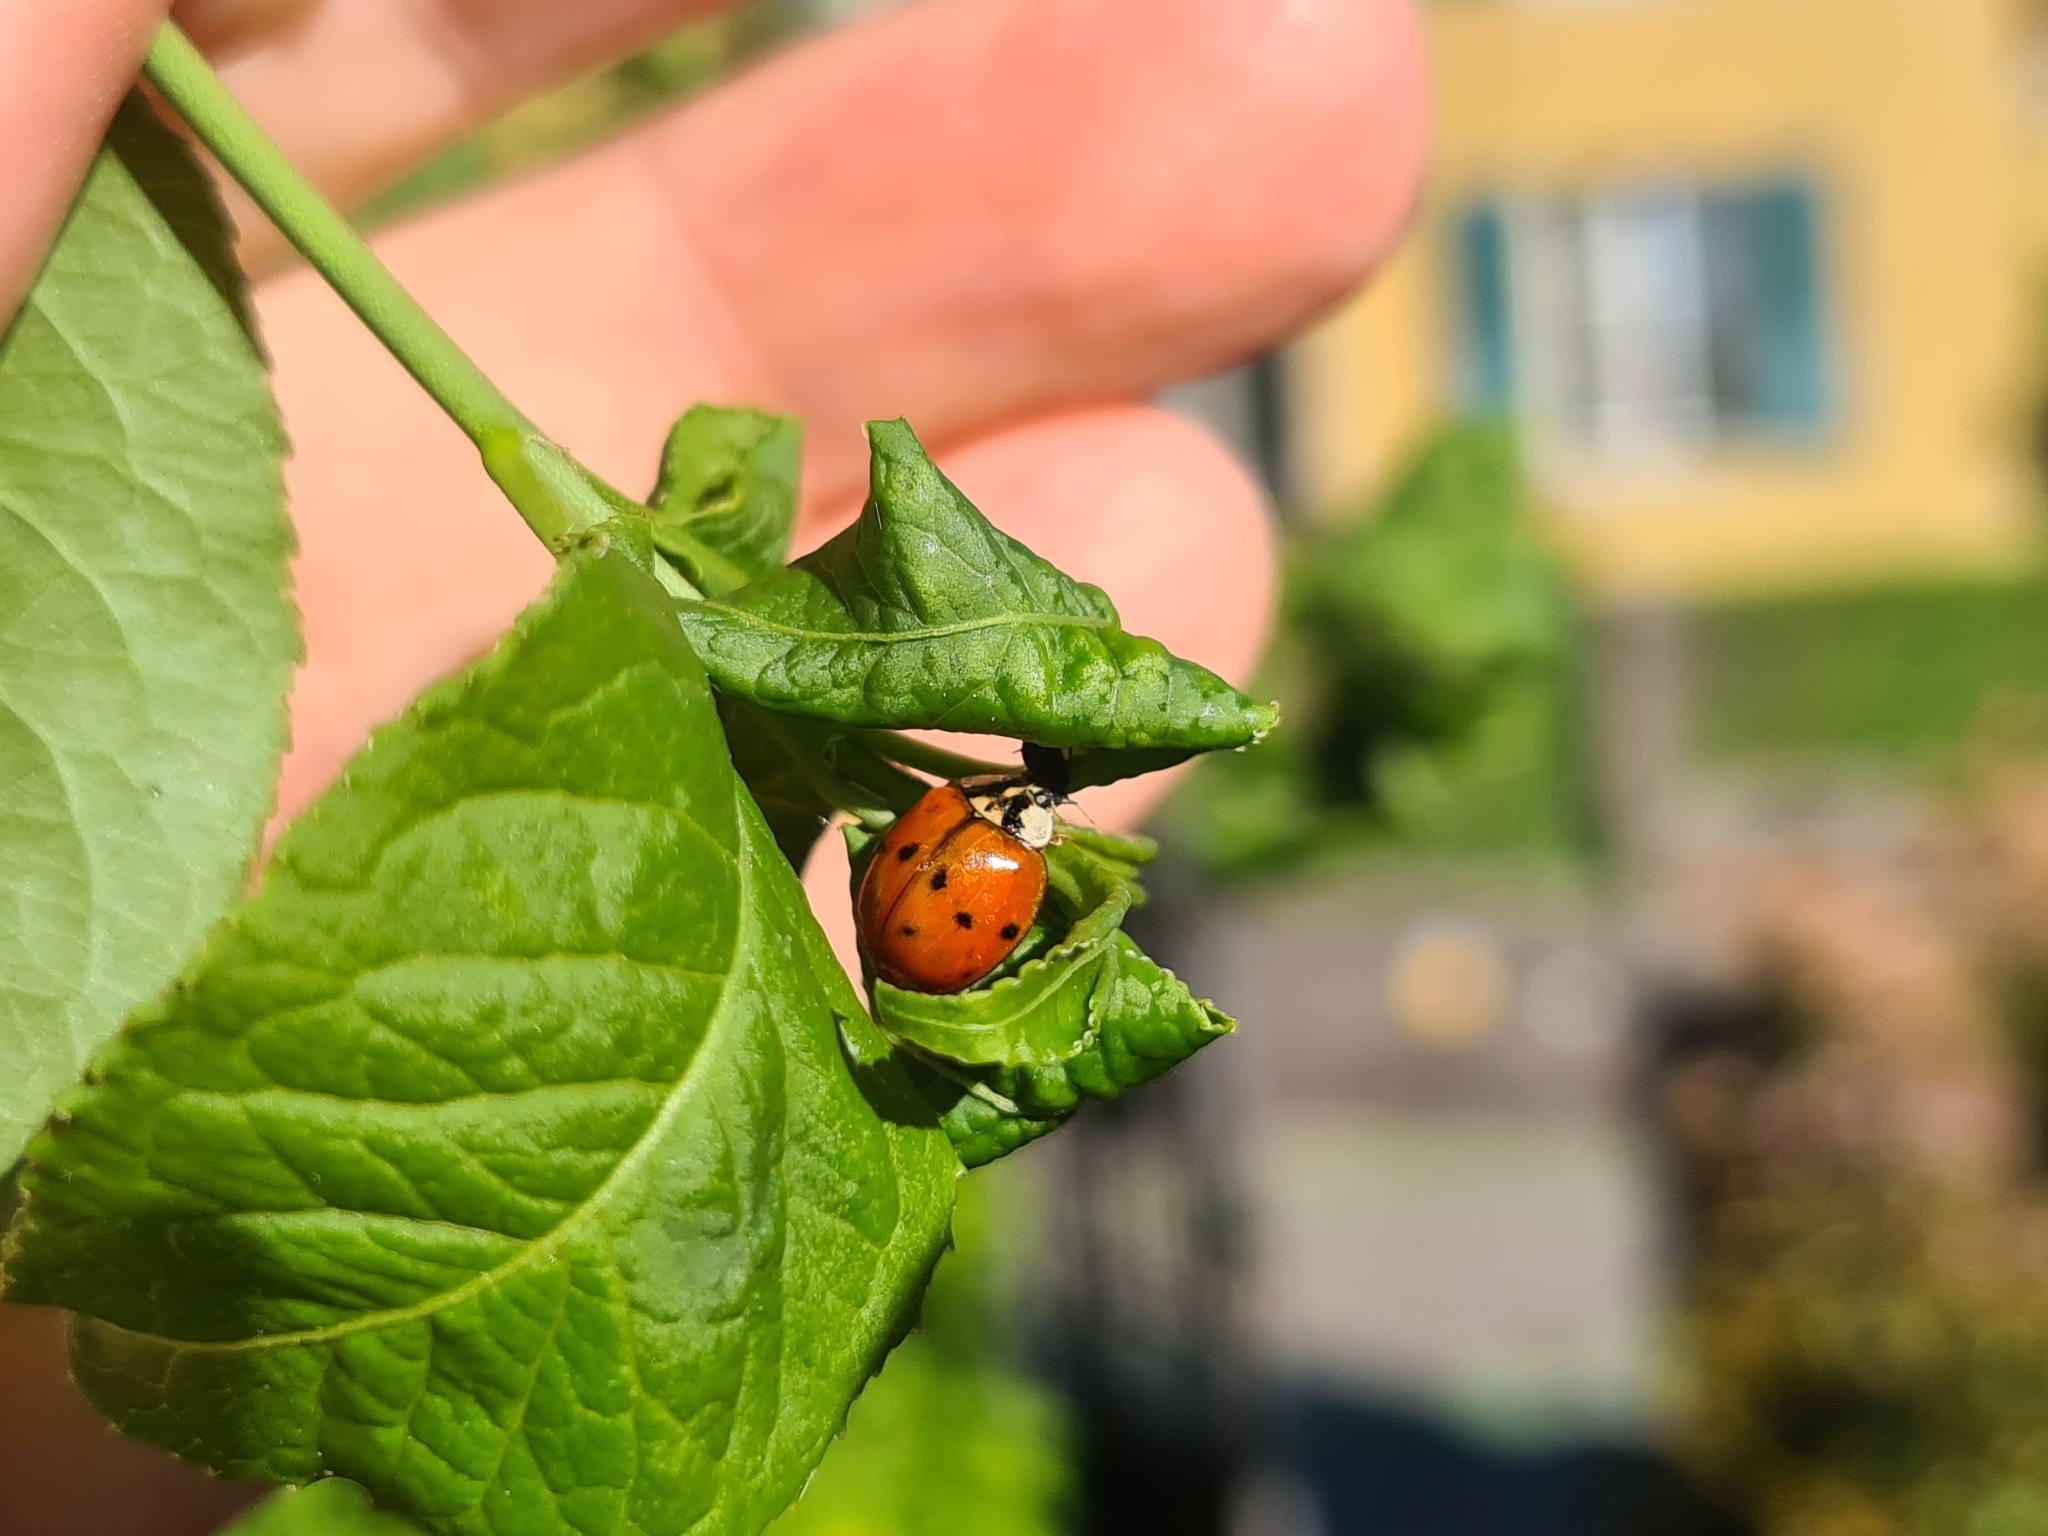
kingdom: Animalia
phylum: Arthropoda
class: Insecta
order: Coleoptera
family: Coccinellidae
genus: Harmonia
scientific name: Harmonia axyridis
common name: Harlequin ladybird
